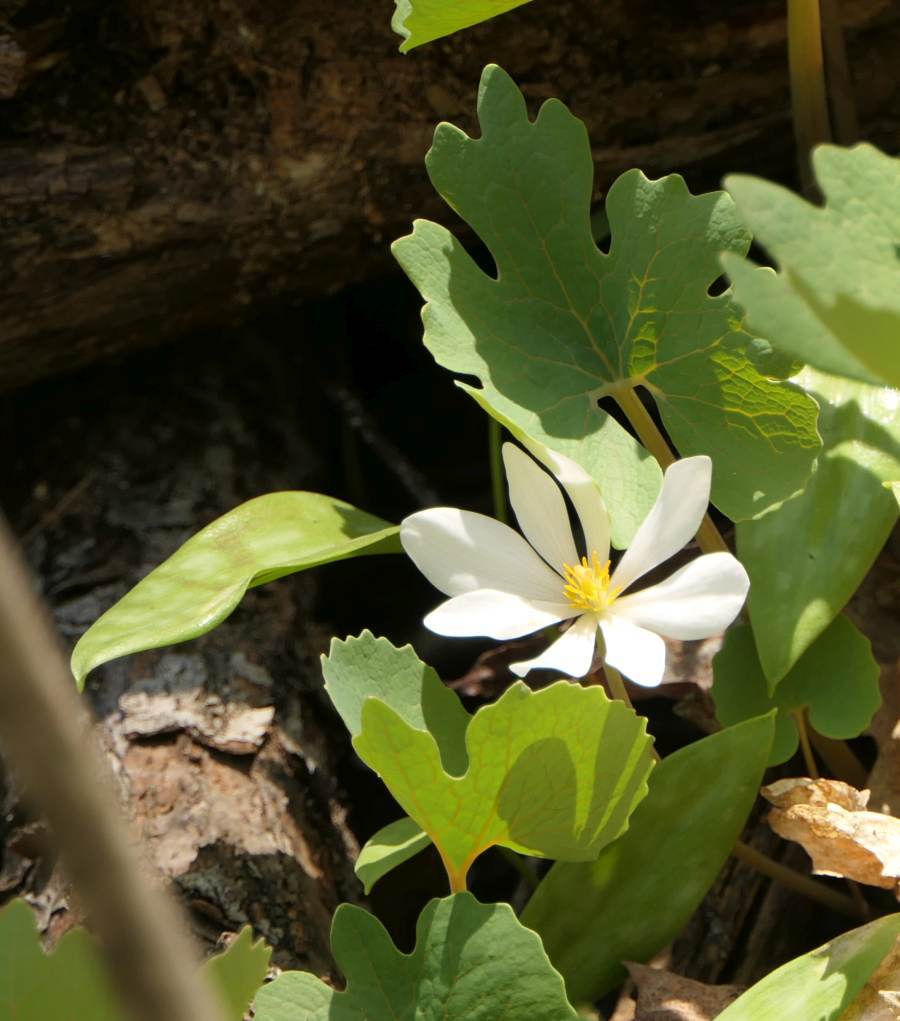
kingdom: Plantae
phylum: Tracheophyta
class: Magnoliopsida
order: Ranunculales
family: Papaveraceae
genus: Sanguinaria
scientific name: Sanguinaria canadensis
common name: Bloodroot
